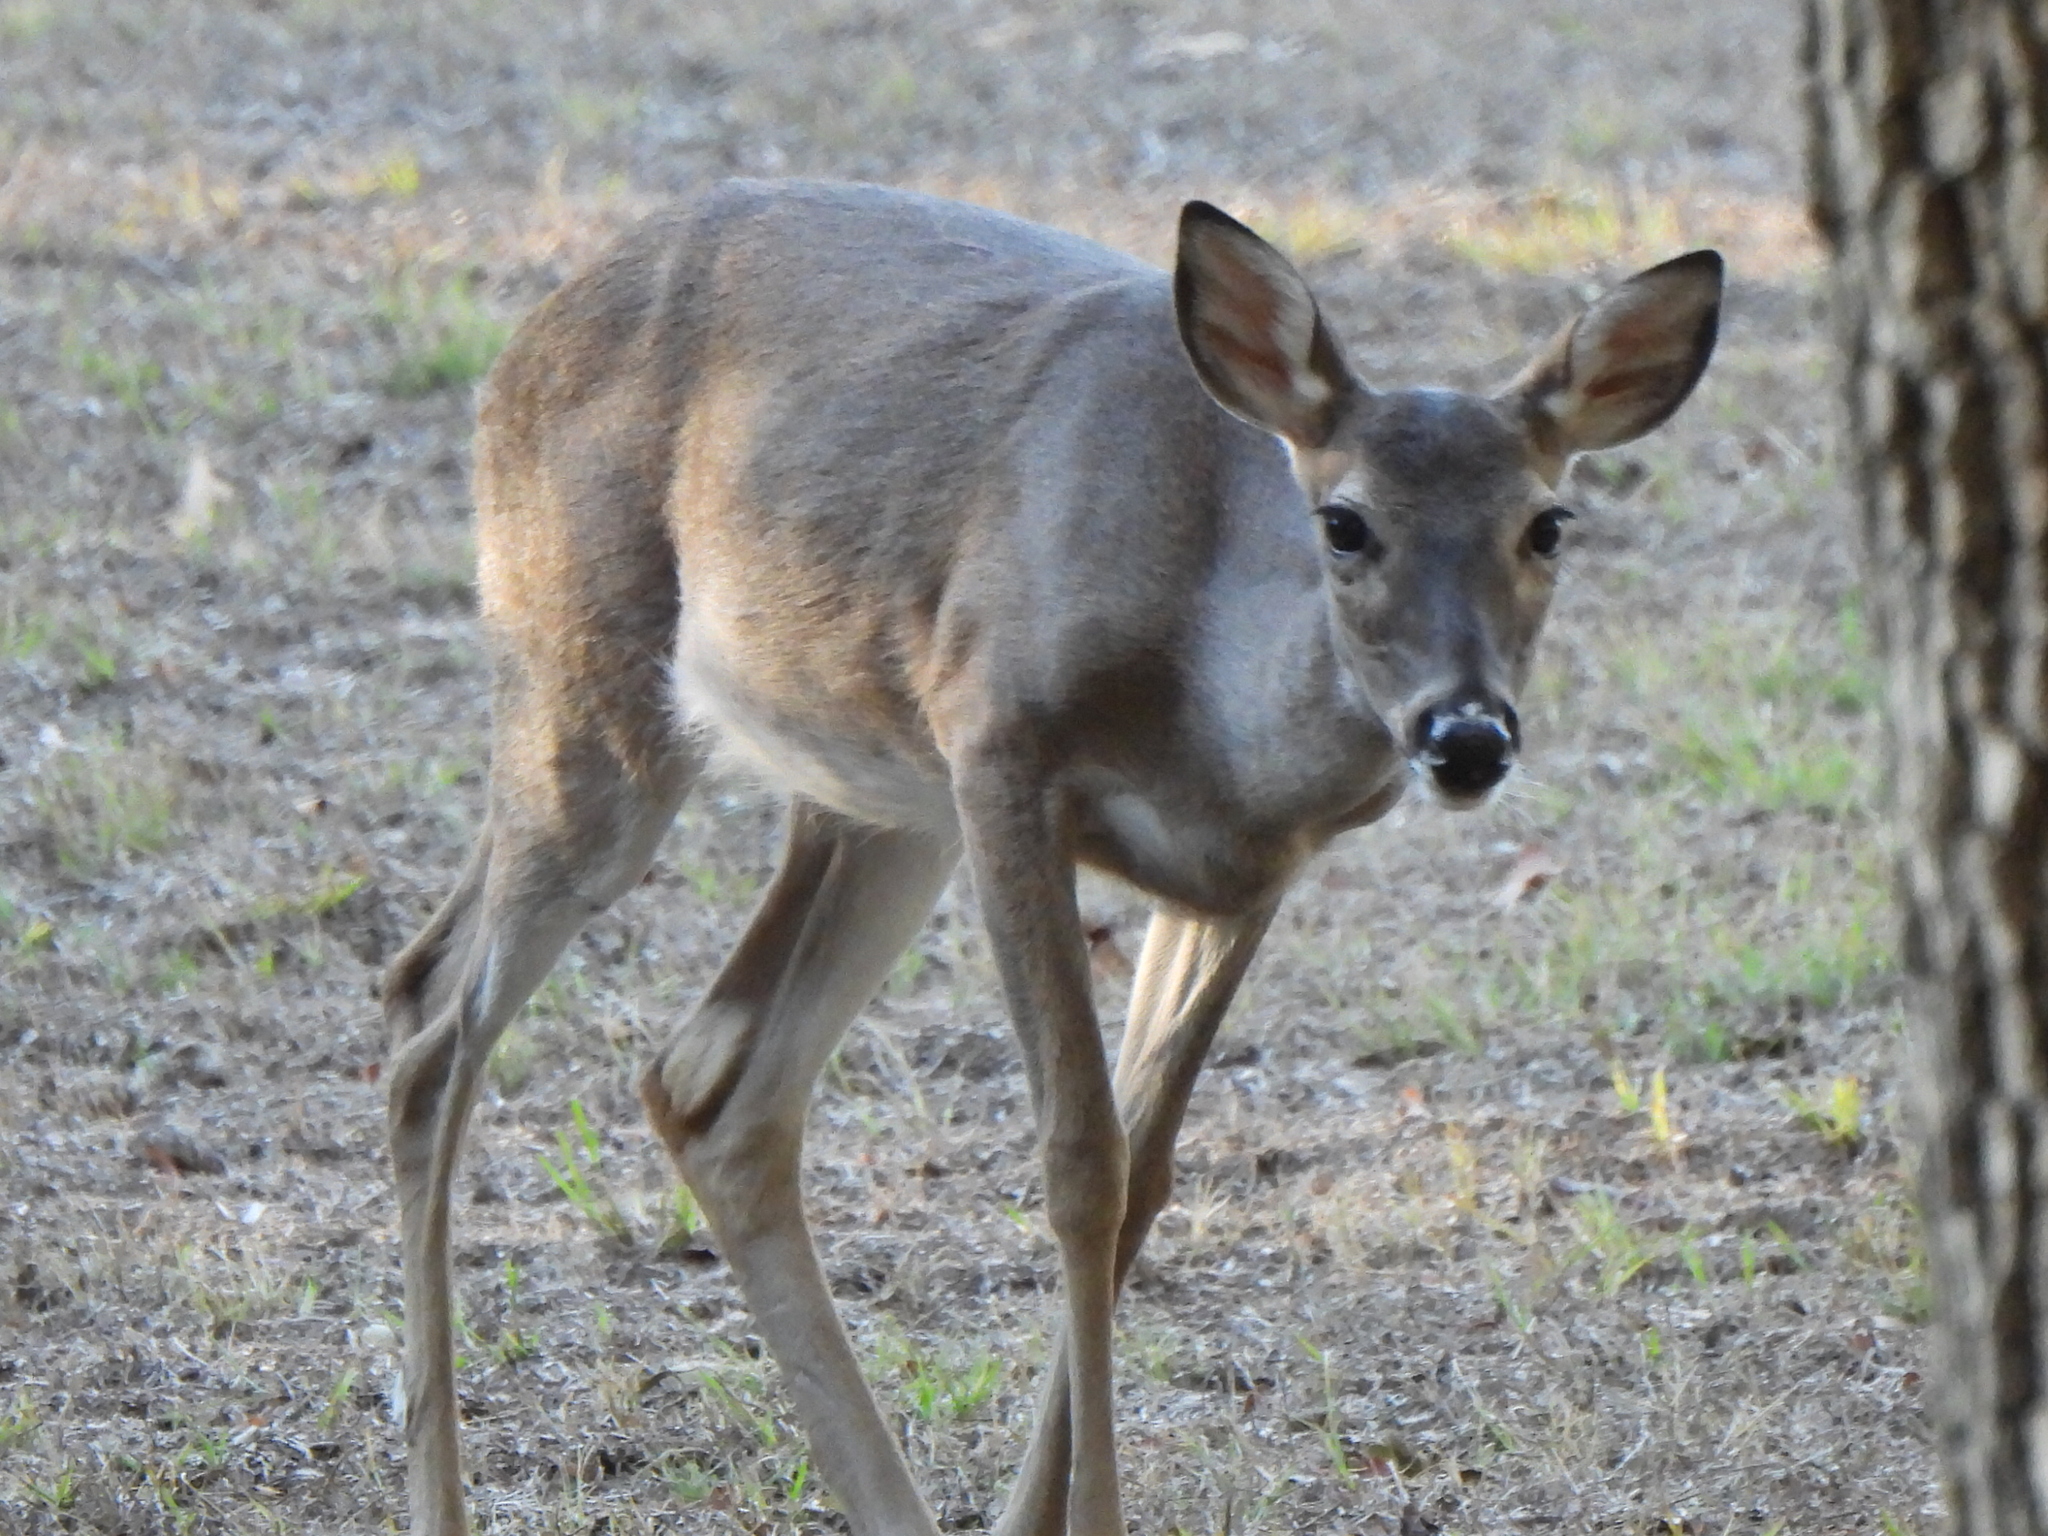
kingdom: Animalia
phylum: Chordata
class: Mammalia
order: Artiodactyla
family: Cervidae
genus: Odocoileus
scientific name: Odocoileus virginianus
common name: White-tailed deer
